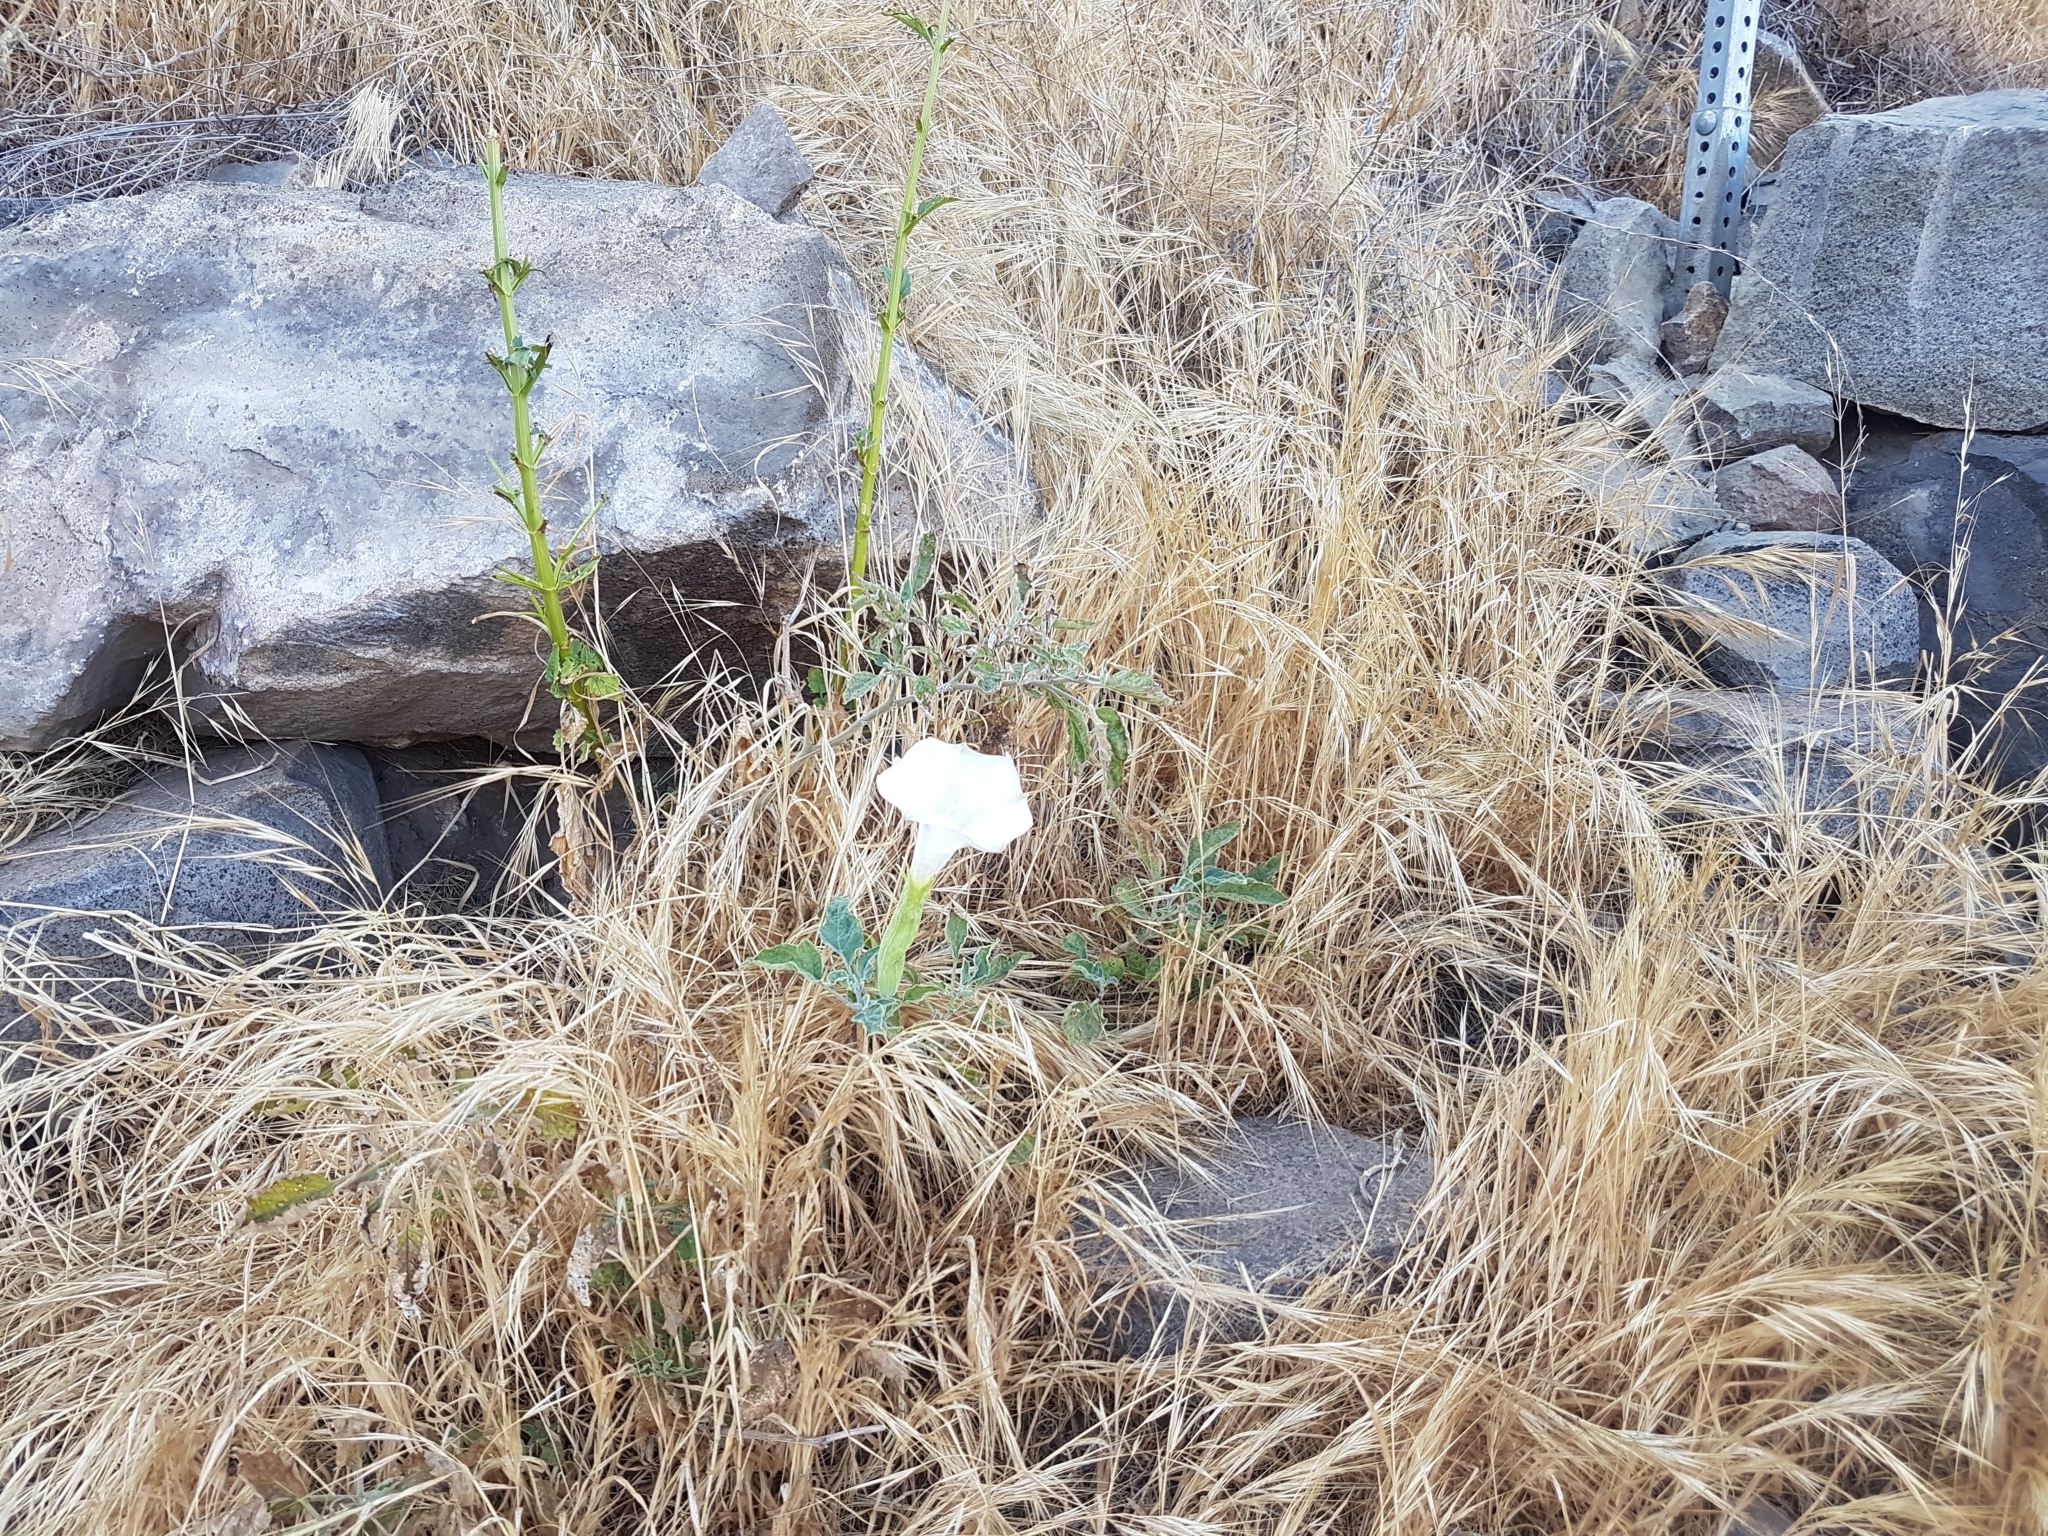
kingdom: Plantae
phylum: Tracheophyta
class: Magnoliopsida
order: Solanales
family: Solanaceae
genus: Datura
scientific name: Datura wrightii
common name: Sacred thorn-apple
